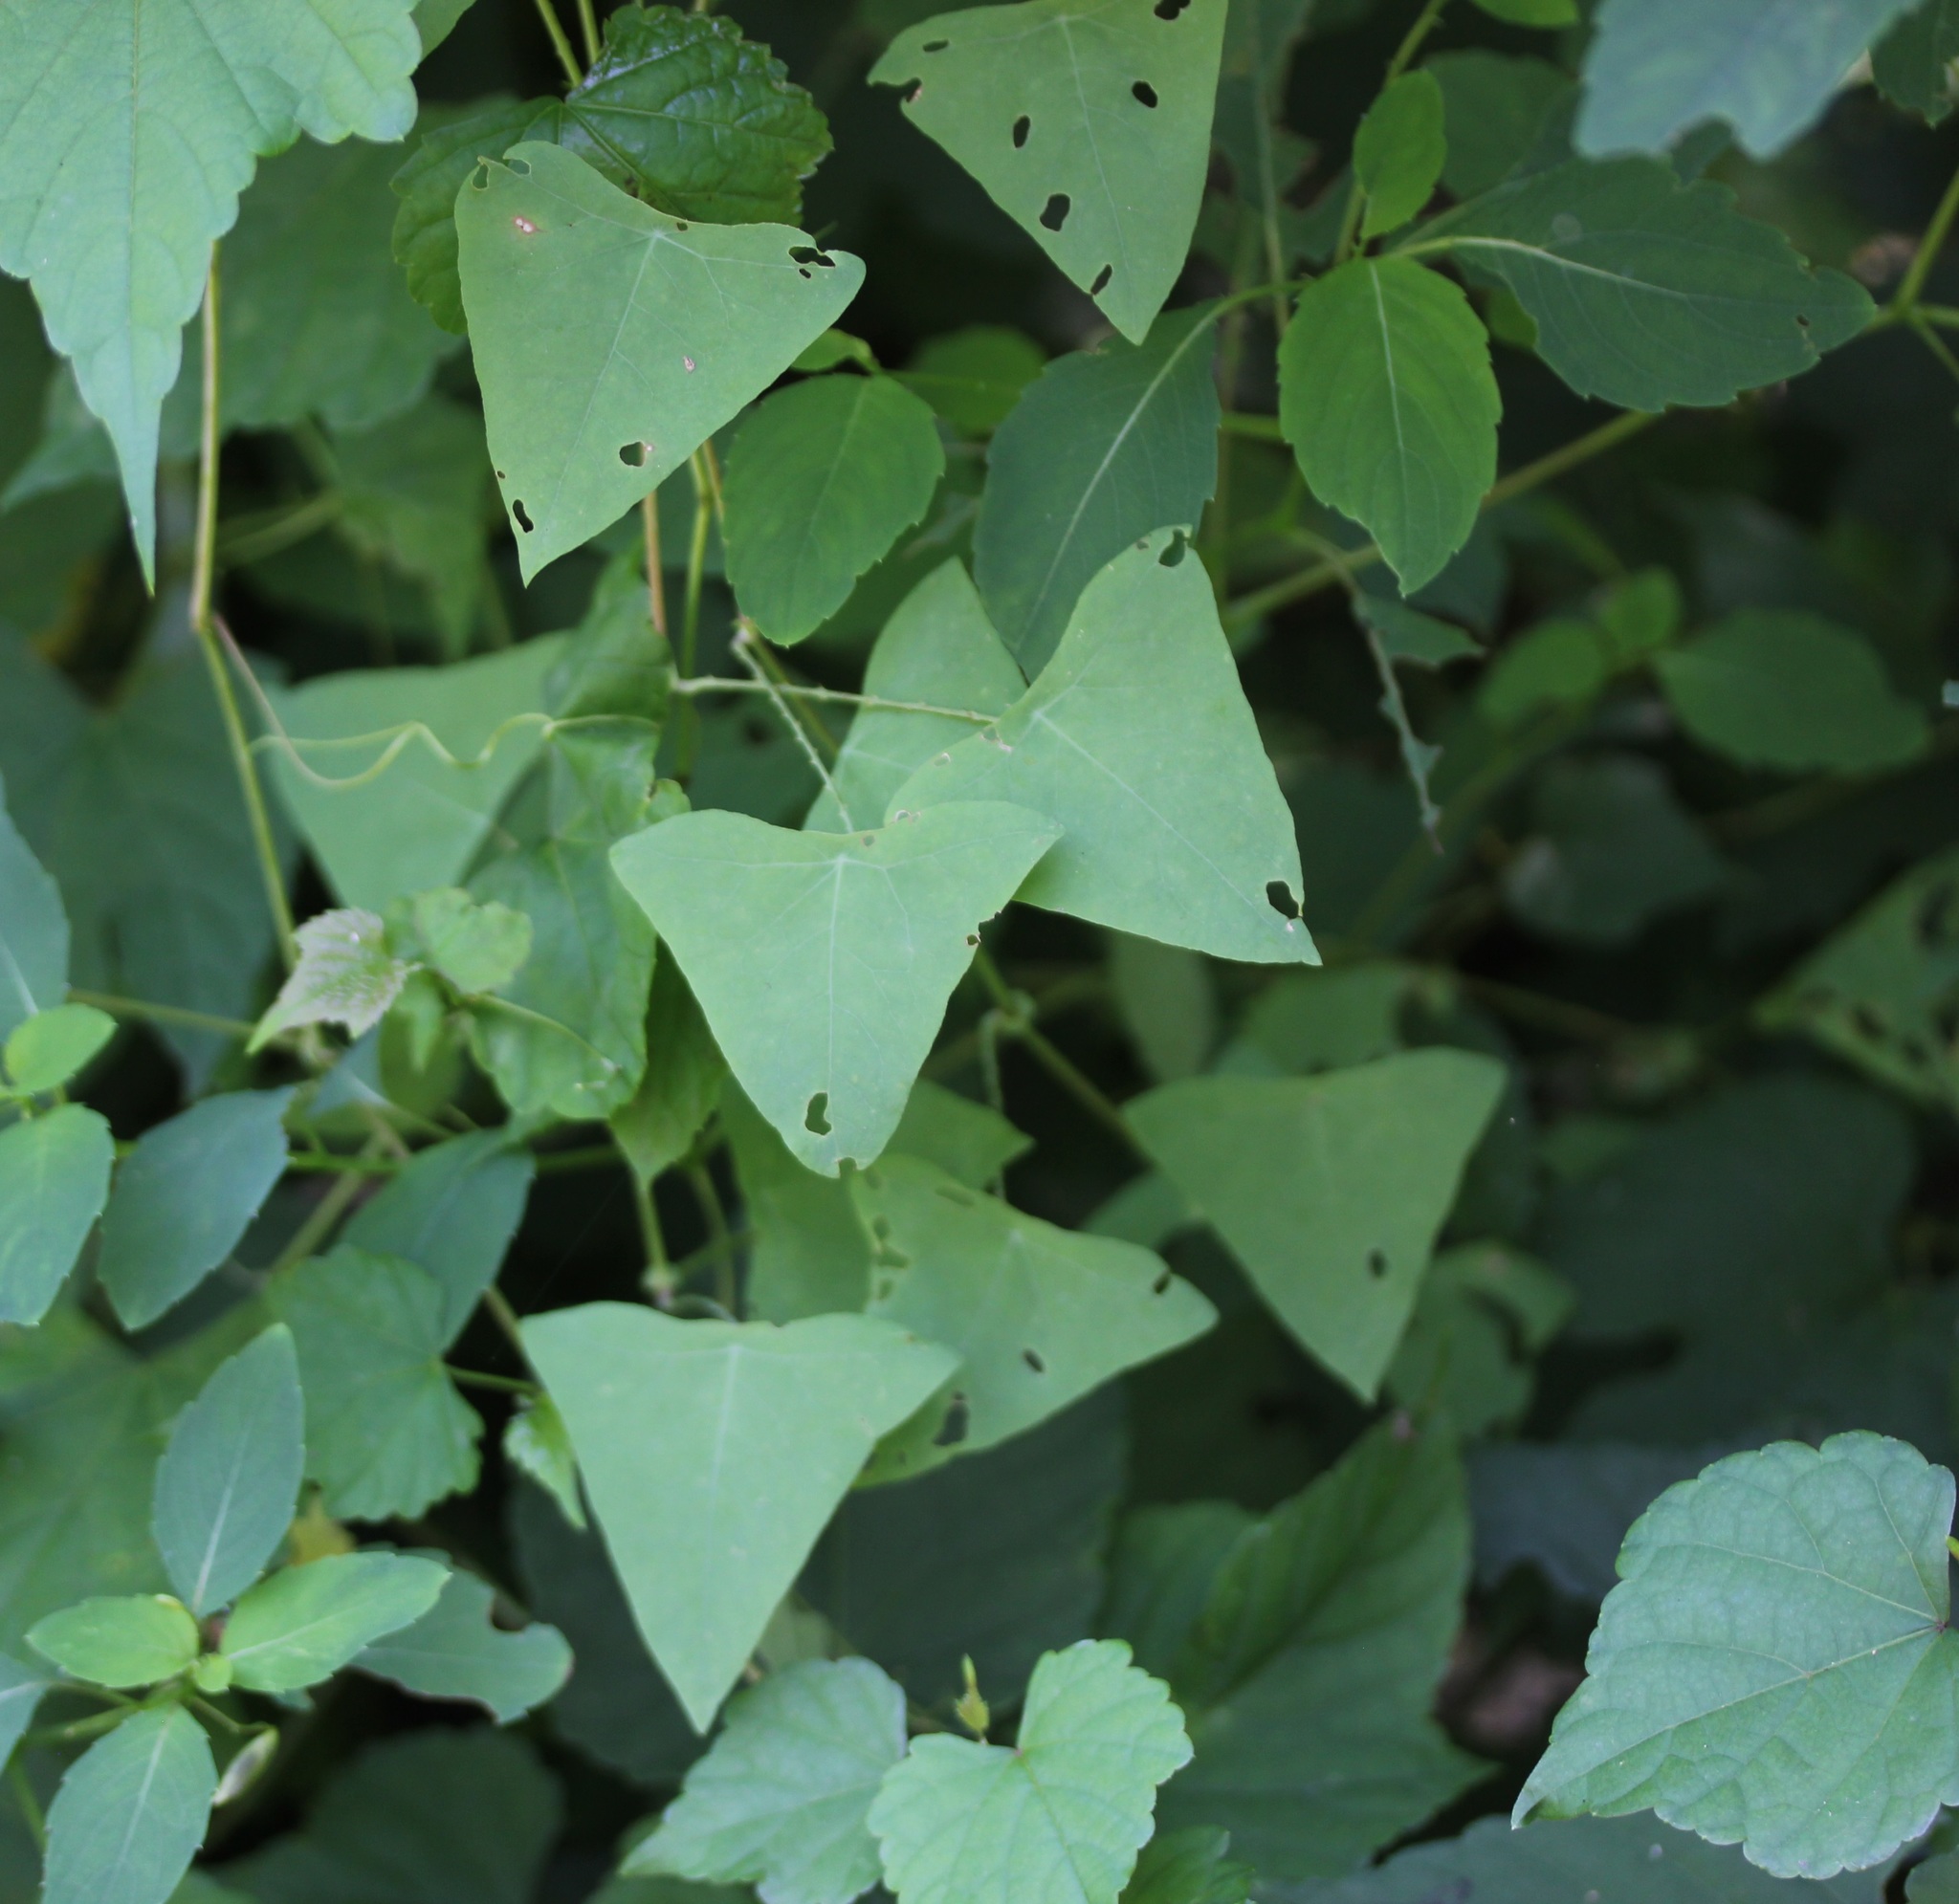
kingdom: Plantae
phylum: Tracheophyta
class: Magnoliopsida
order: Caryophyllales
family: Polygonaceae
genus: Persicaria
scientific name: Persicaria perfoliata
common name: Asiatic tearthumb
